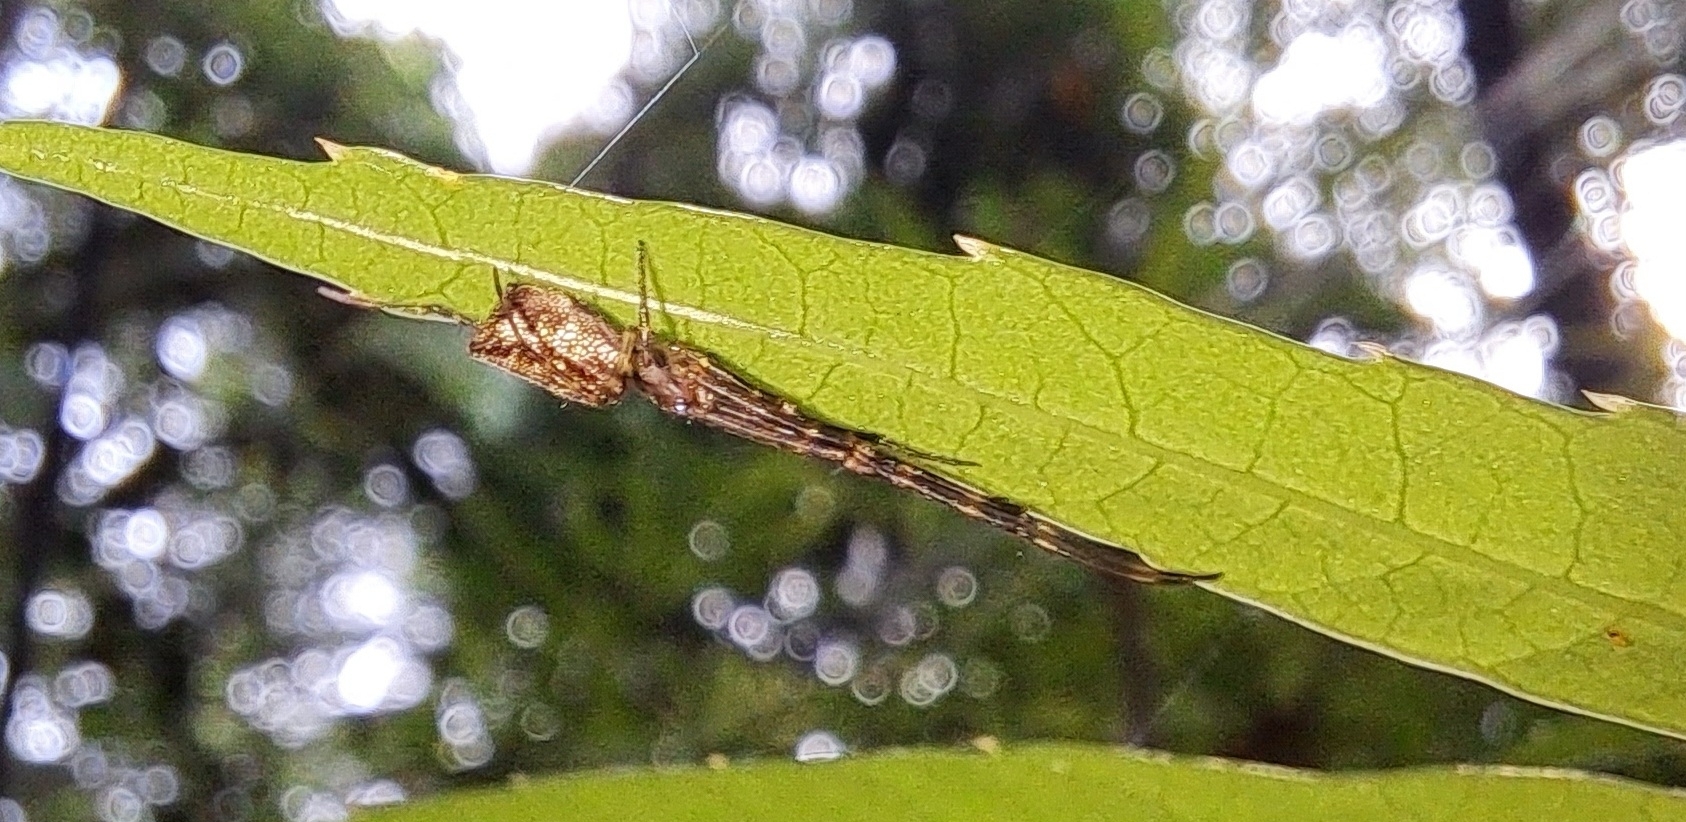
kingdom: Animalia
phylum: Arthropoda
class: Arachnida
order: Araneae
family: Tetragnathidae
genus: Tylorida
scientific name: Tylorida ventralis
